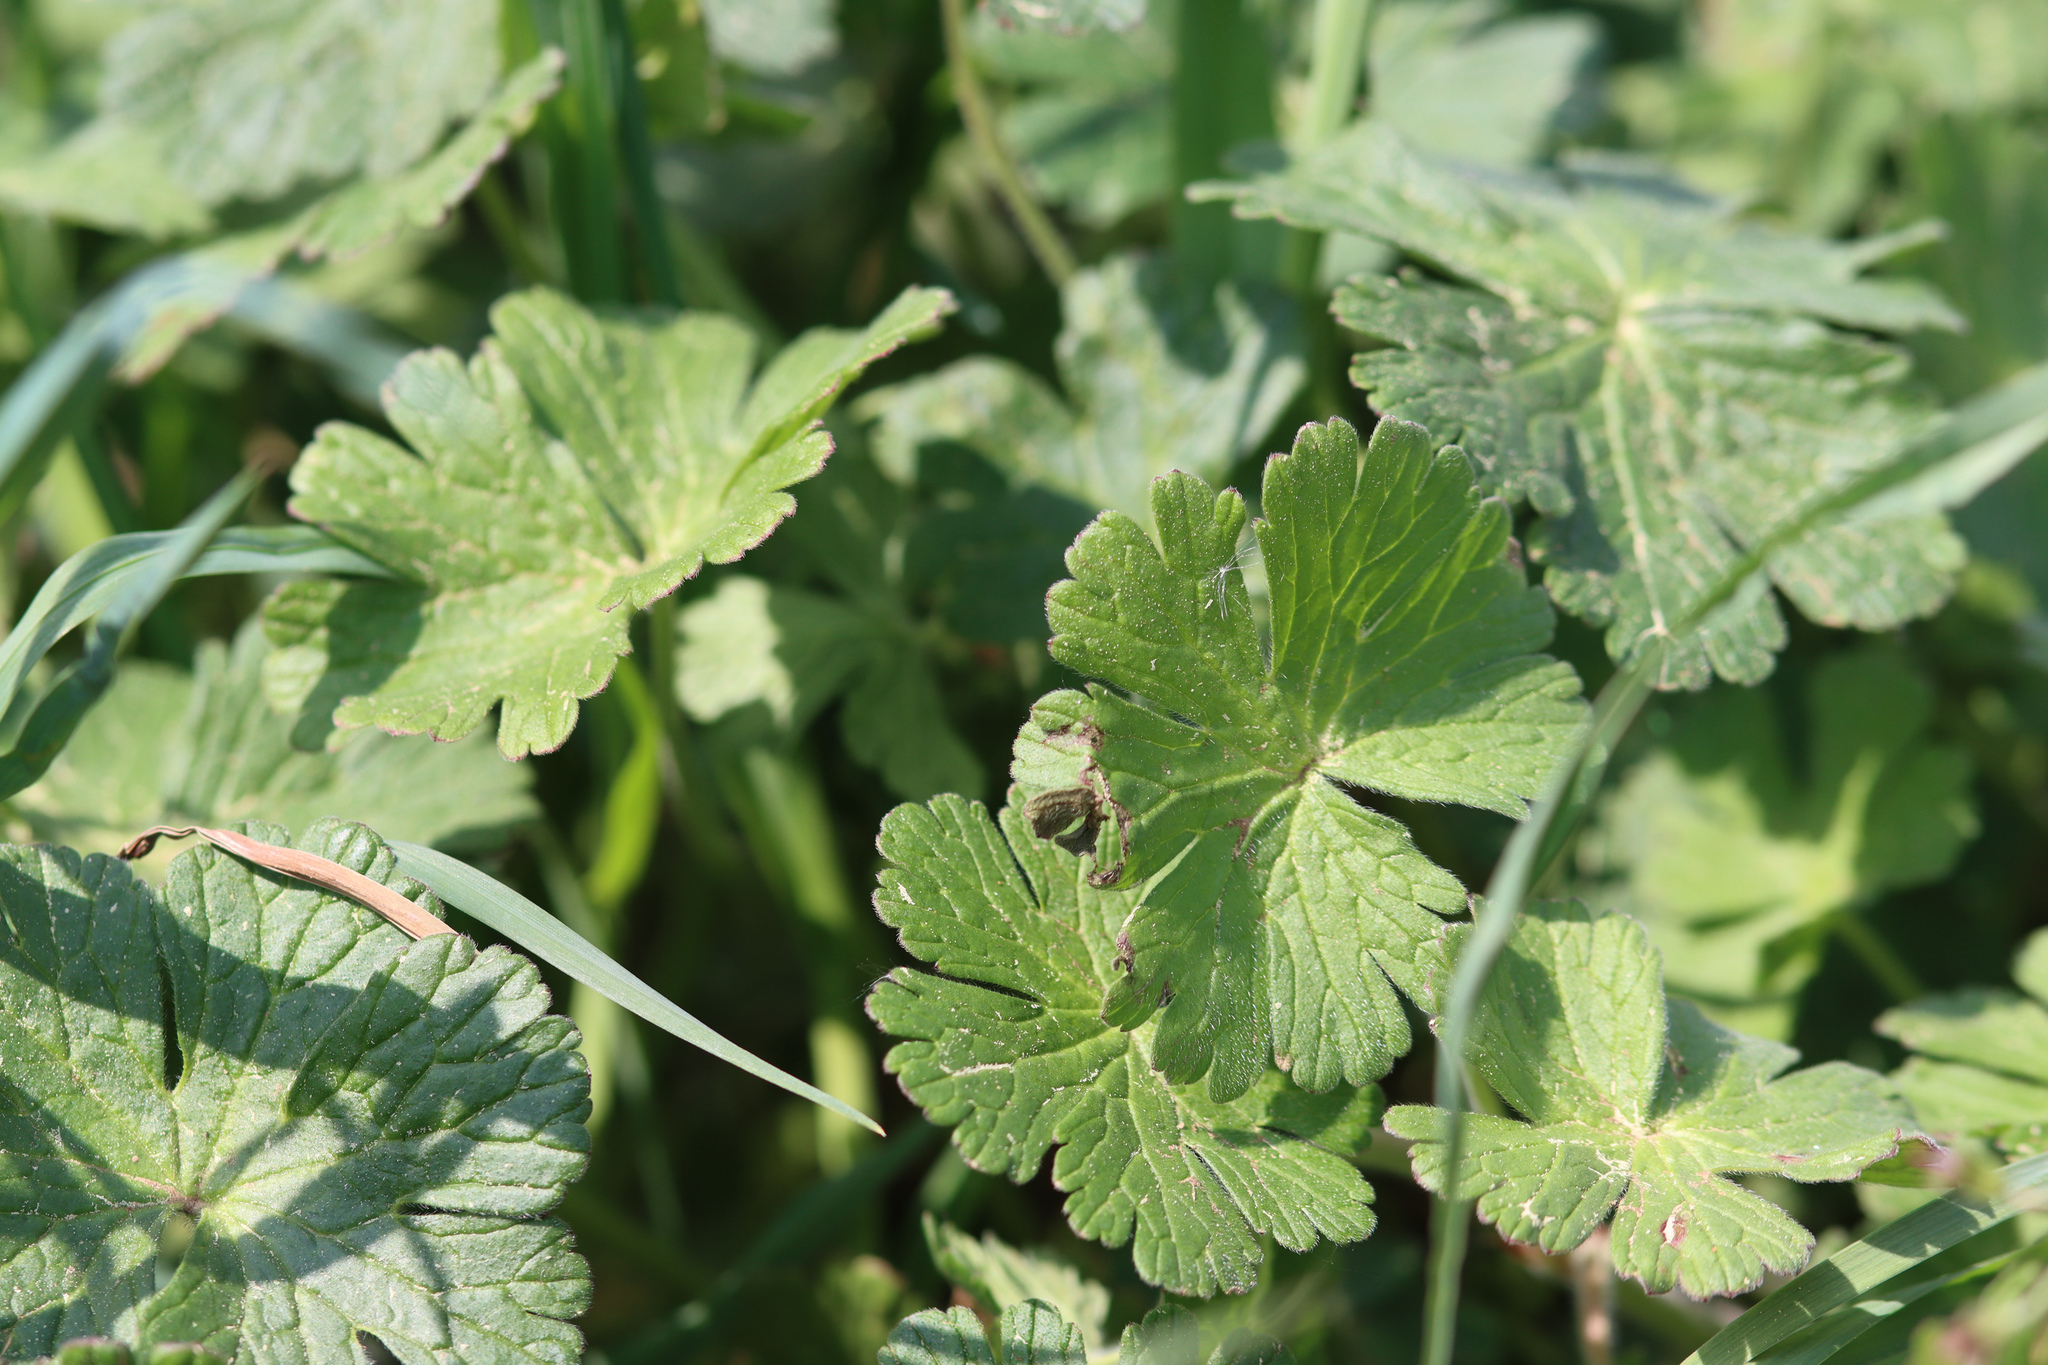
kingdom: Plantae
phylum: Tracheophyta
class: Magnoliopsida
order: Geraniales
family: Geraniaceae
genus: Geranium
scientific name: Geranium pyrenaicum
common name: Hedgerow crane's-bill
